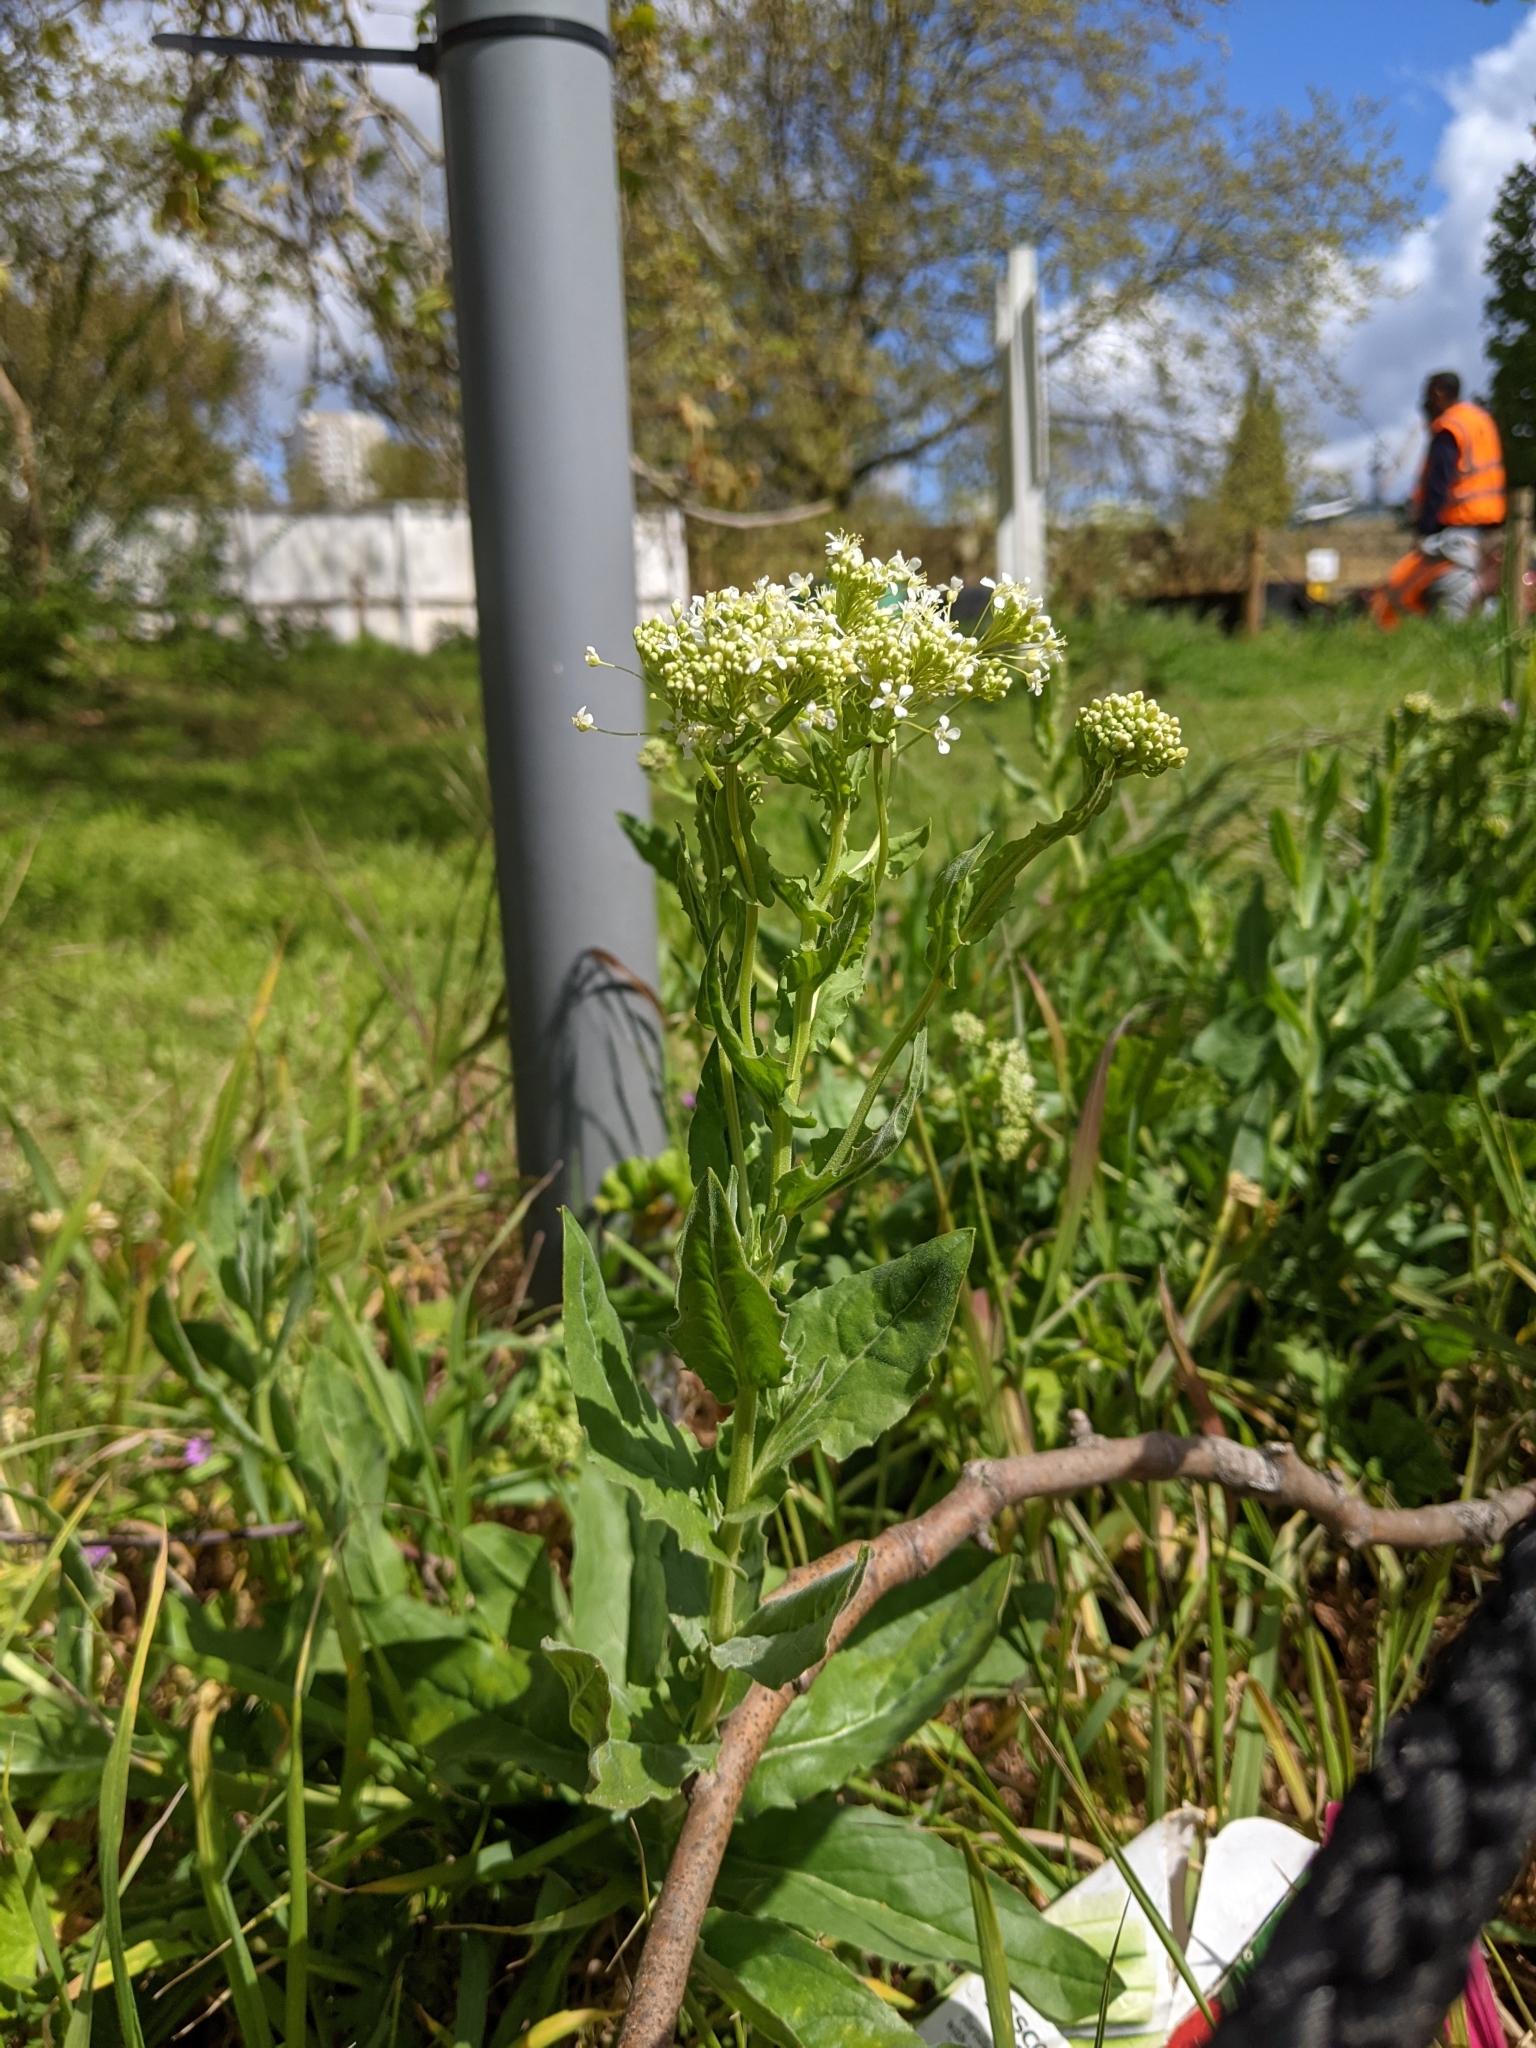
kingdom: Plantae
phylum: Tracheophyta
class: Magnoliopsida
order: Brassicales
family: Brassicaceae
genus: Lepidium
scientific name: Lepidium draba
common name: Hoary cress
